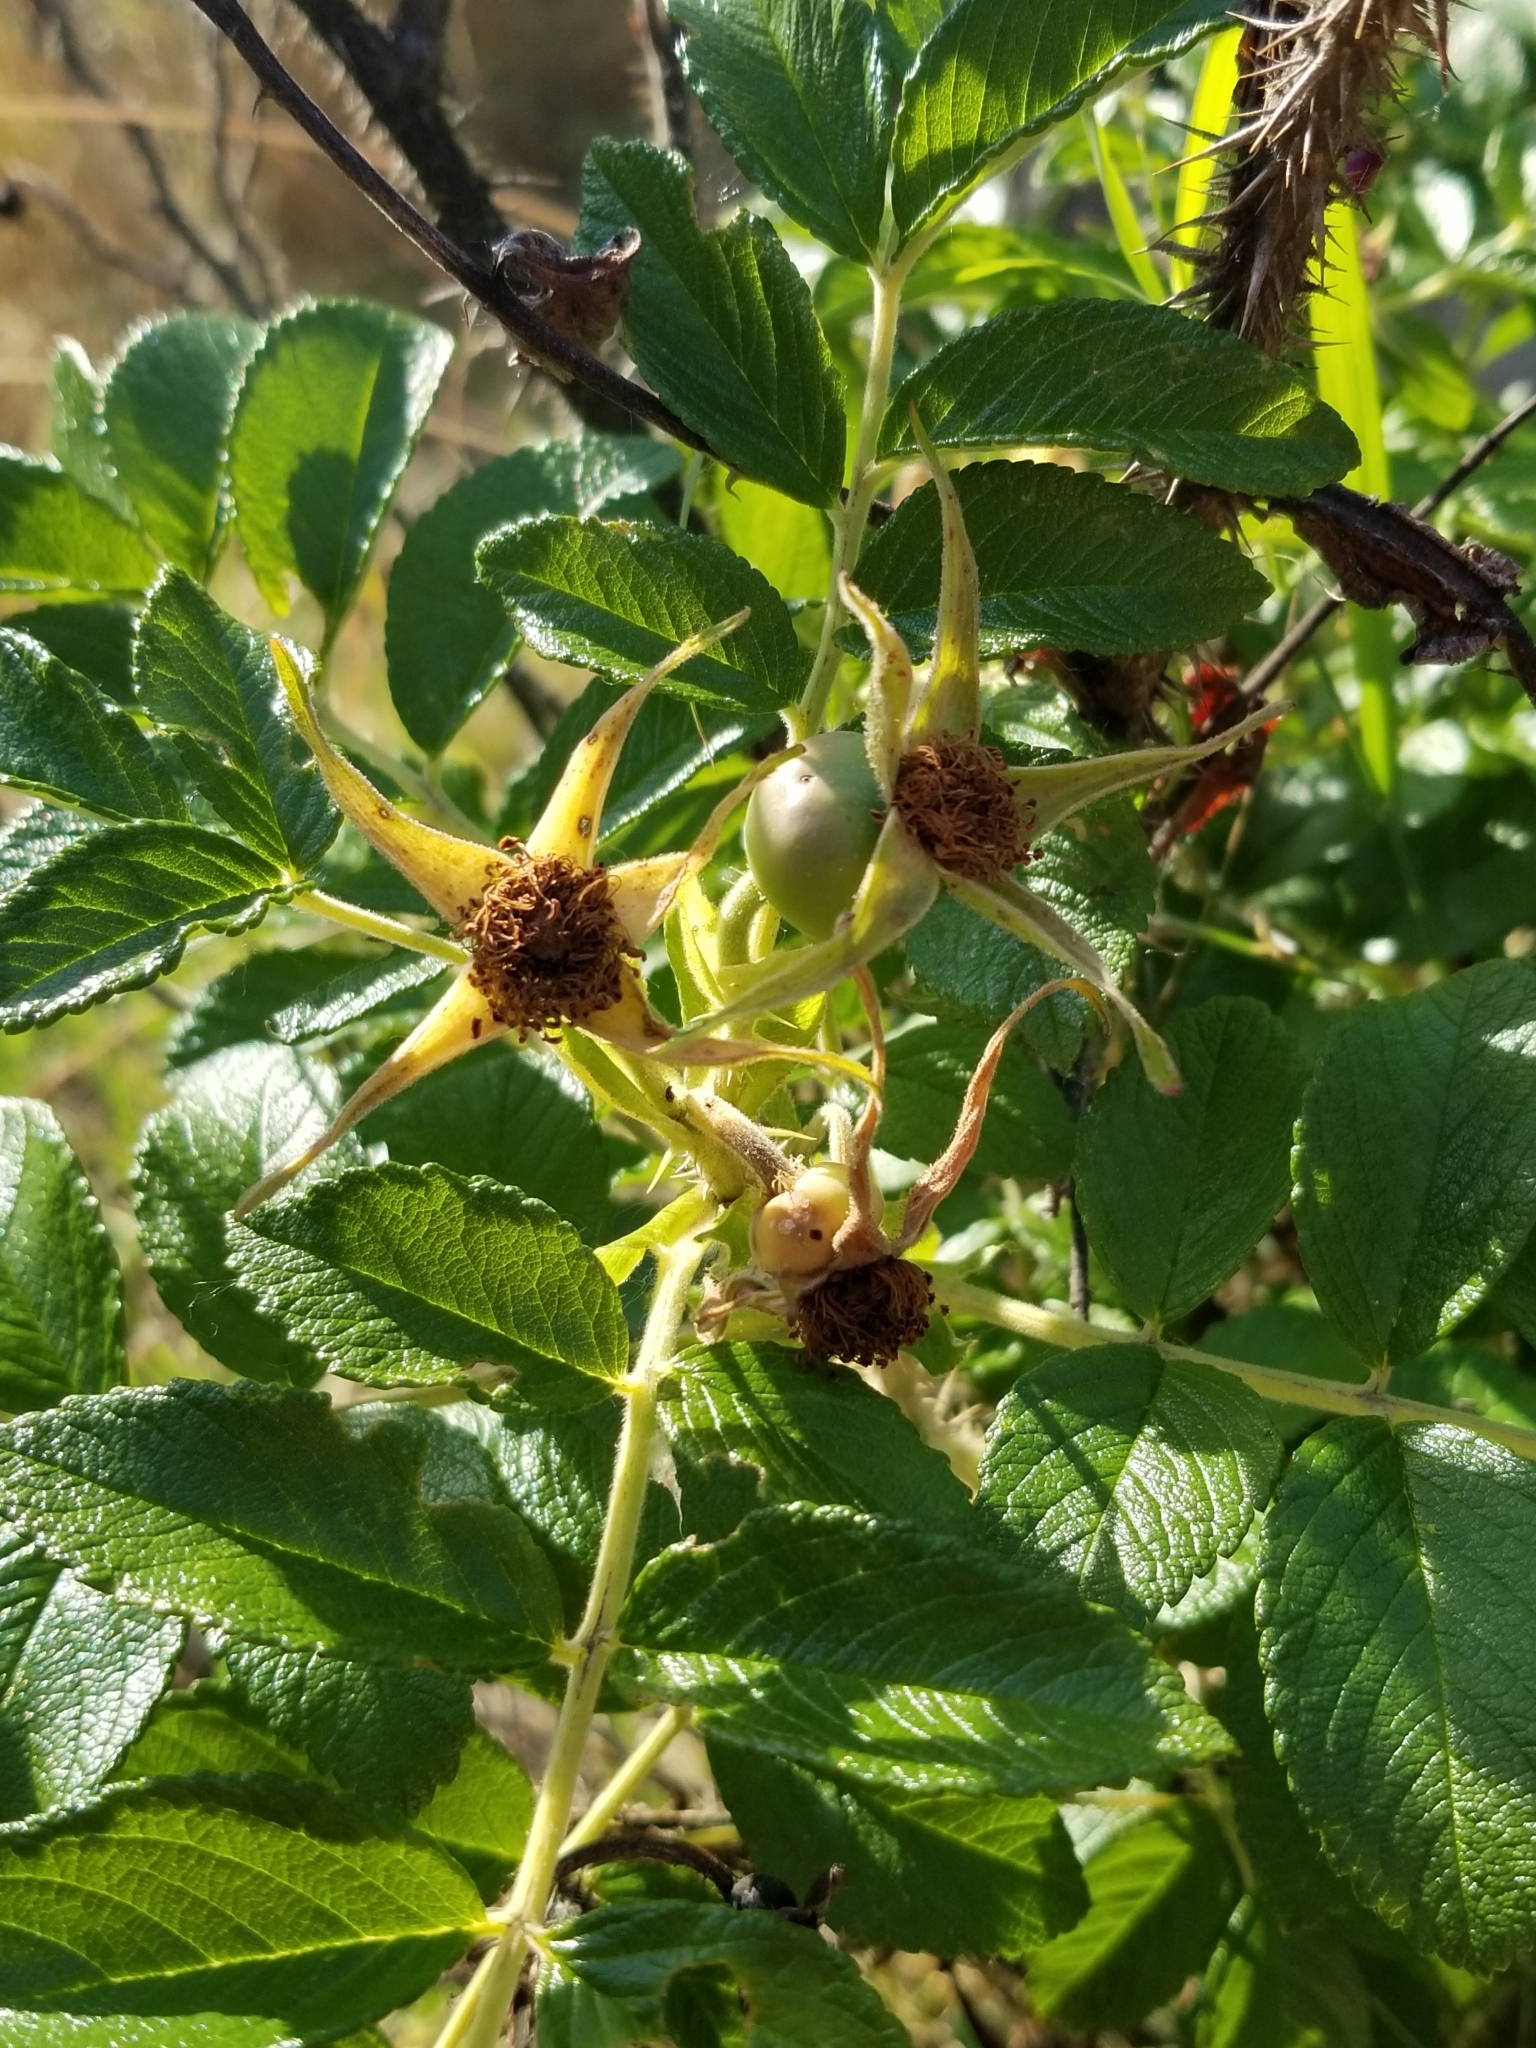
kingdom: Plantae
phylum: Tracheophyta
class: Magnoliopsida
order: Rosales
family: Rosaceae
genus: Rosa
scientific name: Rosa rugosa
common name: Japanese rose
